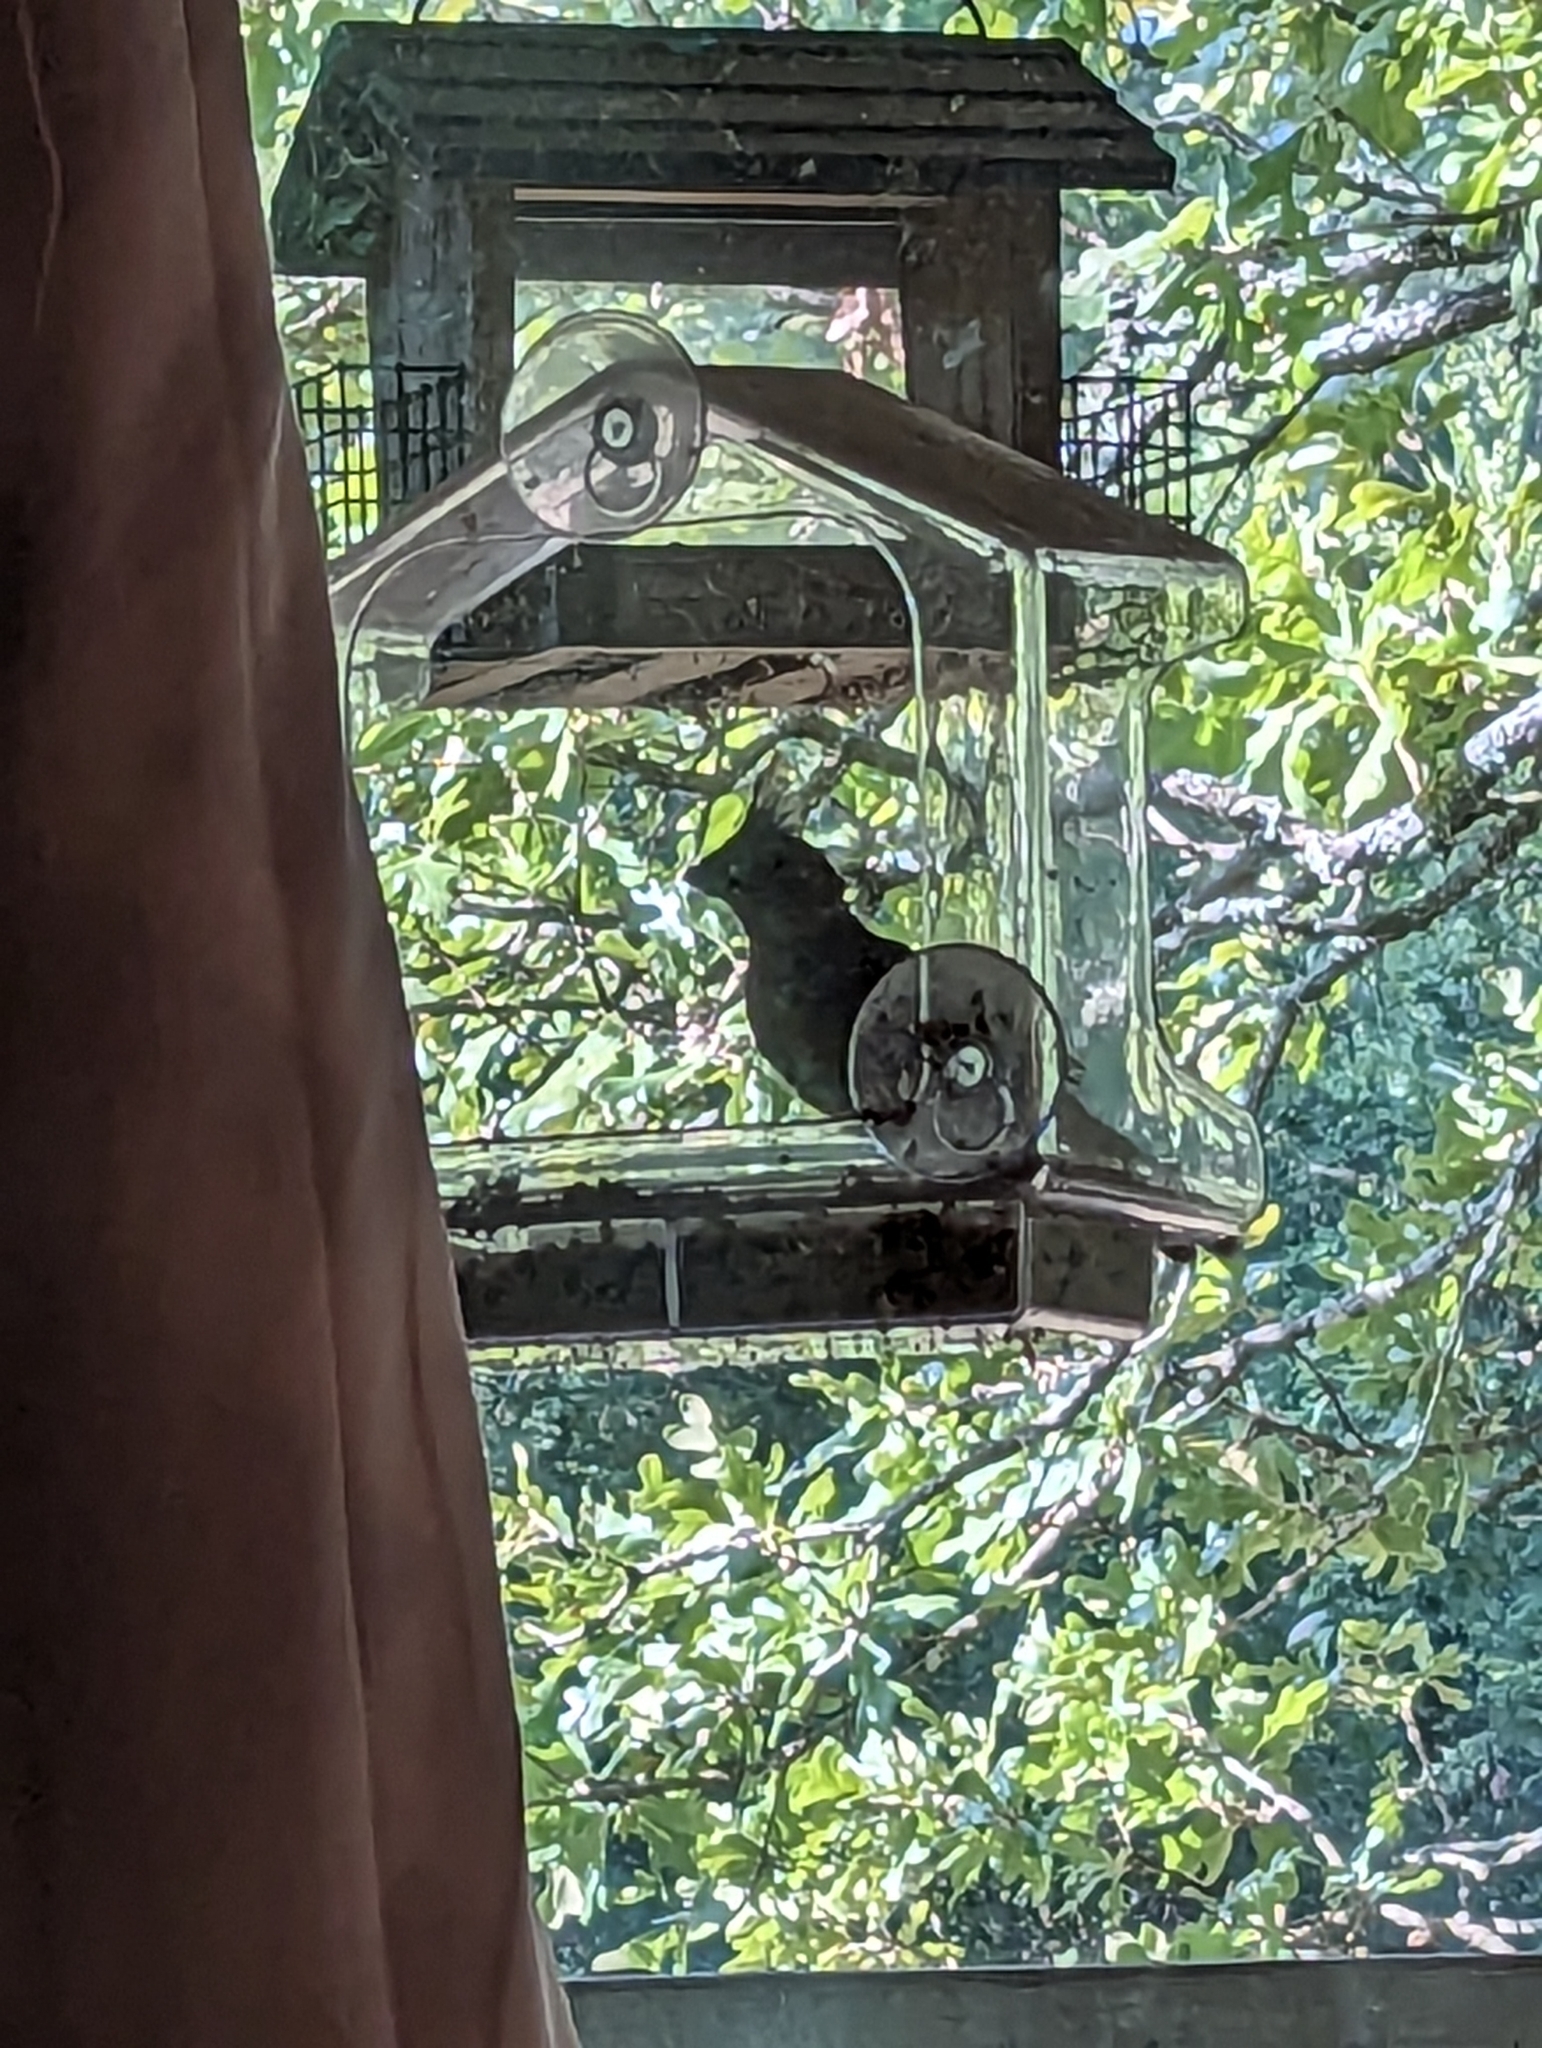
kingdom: Animalia
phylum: Chordata
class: Aves
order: Passeriformes
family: Cardinalidae
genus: Cardinalis
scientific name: Cardinalis cardinalis
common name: Northern cardinal
